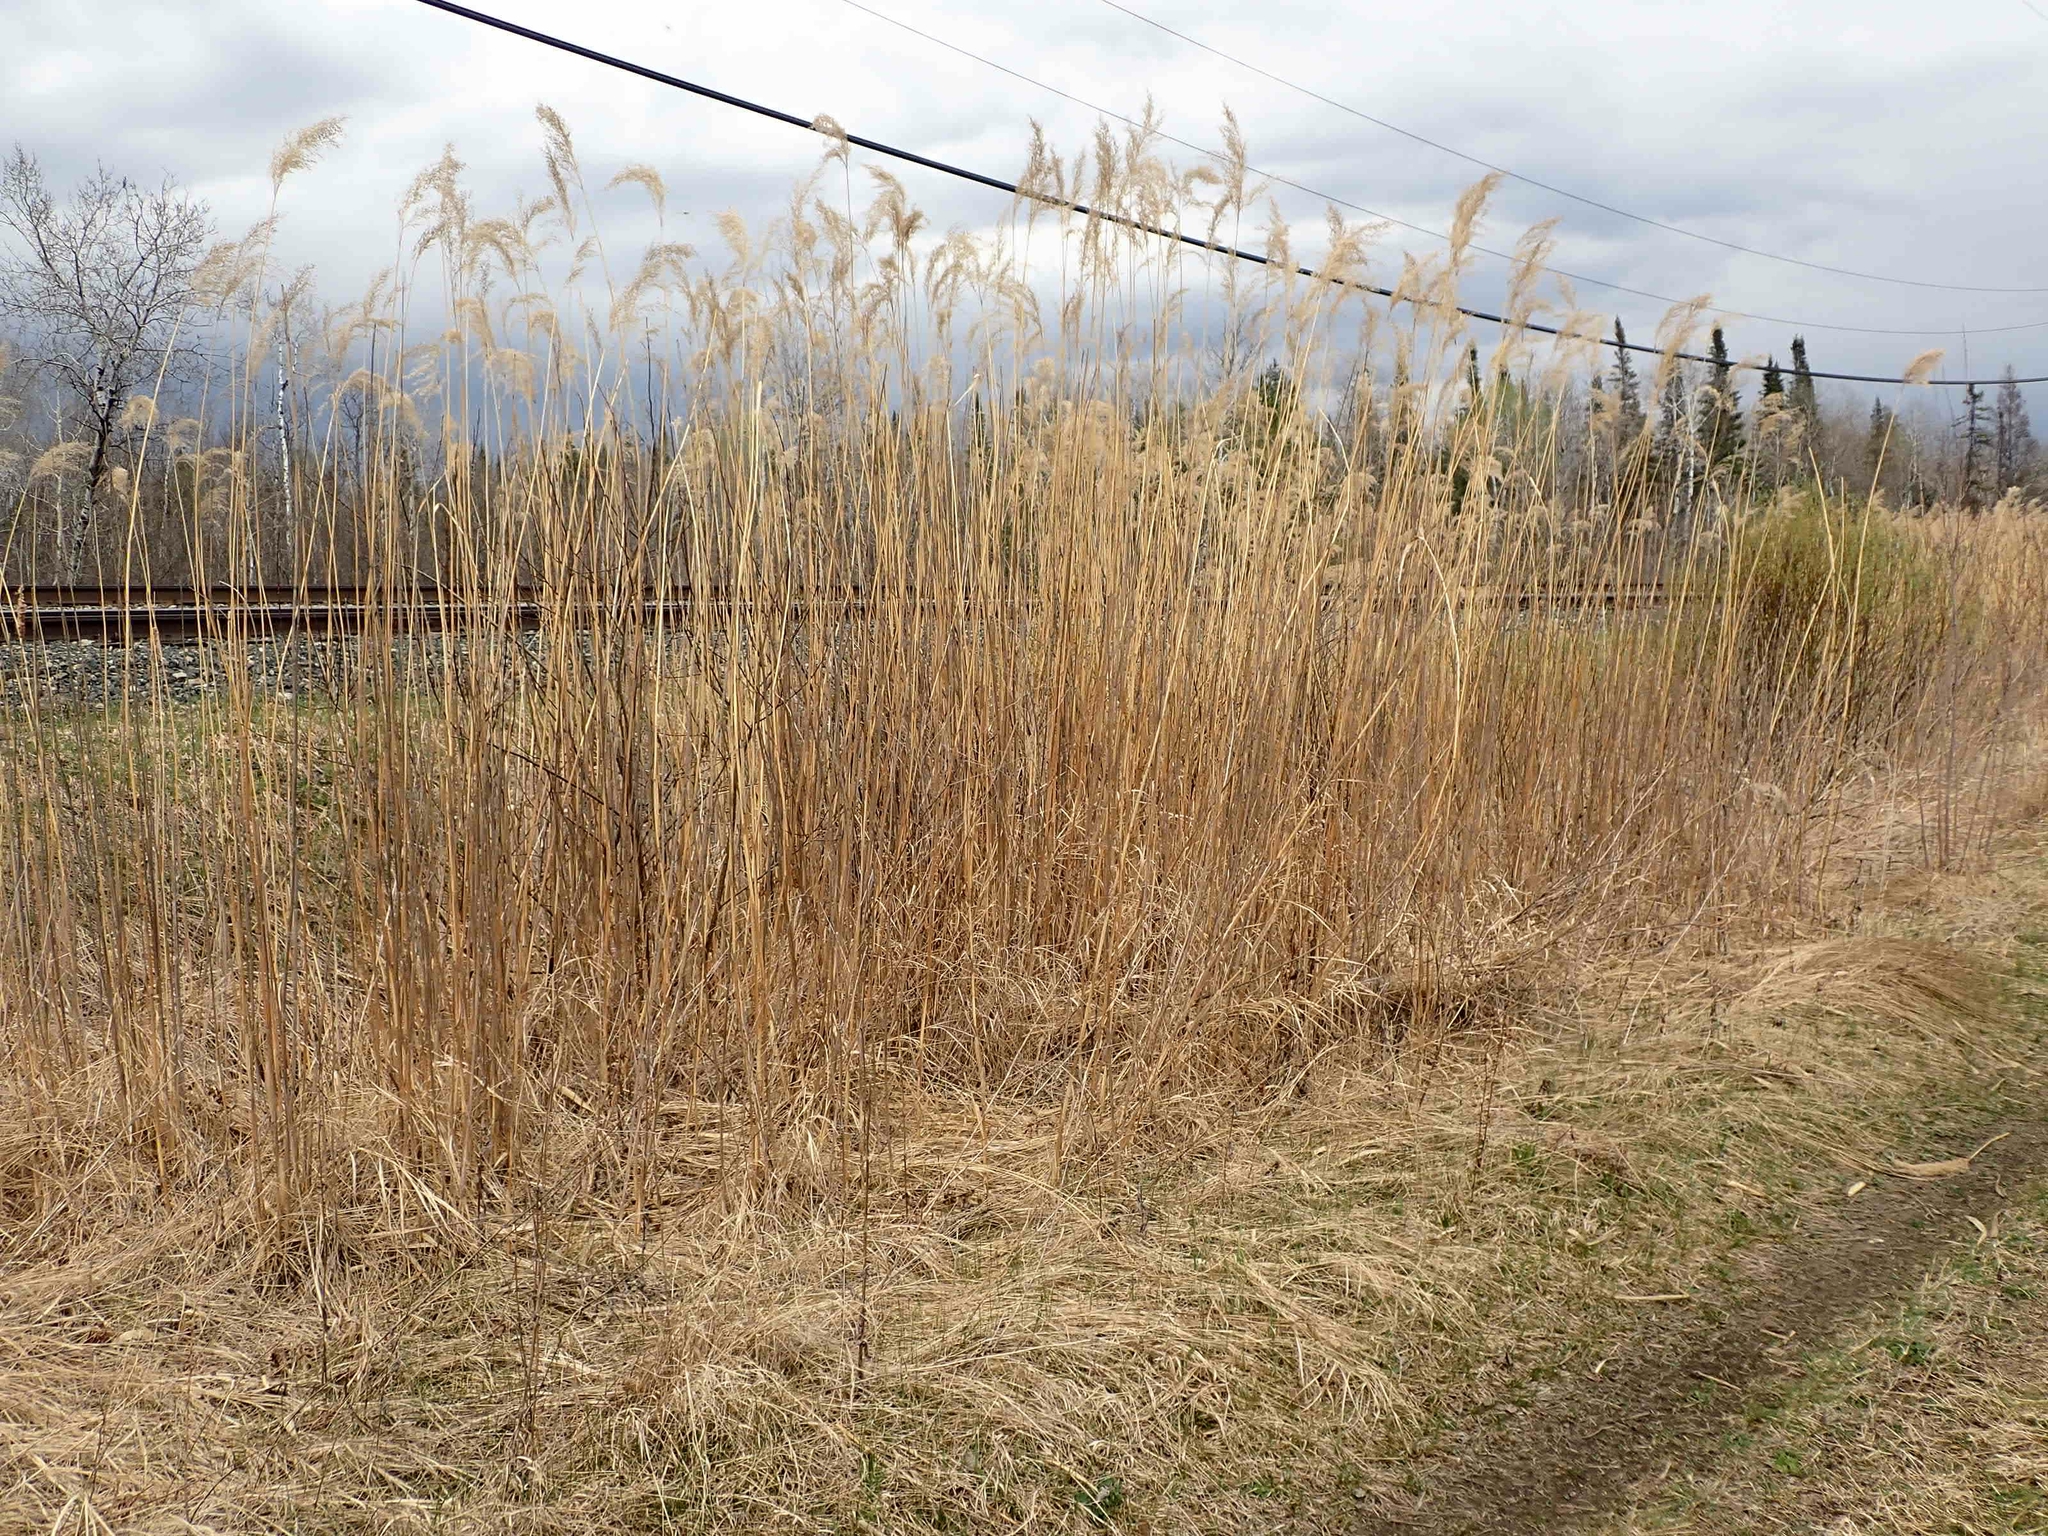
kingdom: Plantae
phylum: Tracheophyta
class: Liliopsida
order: Poales
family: Poaceae
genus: Phragmites
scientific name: Phragmites australis
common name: Common reed
